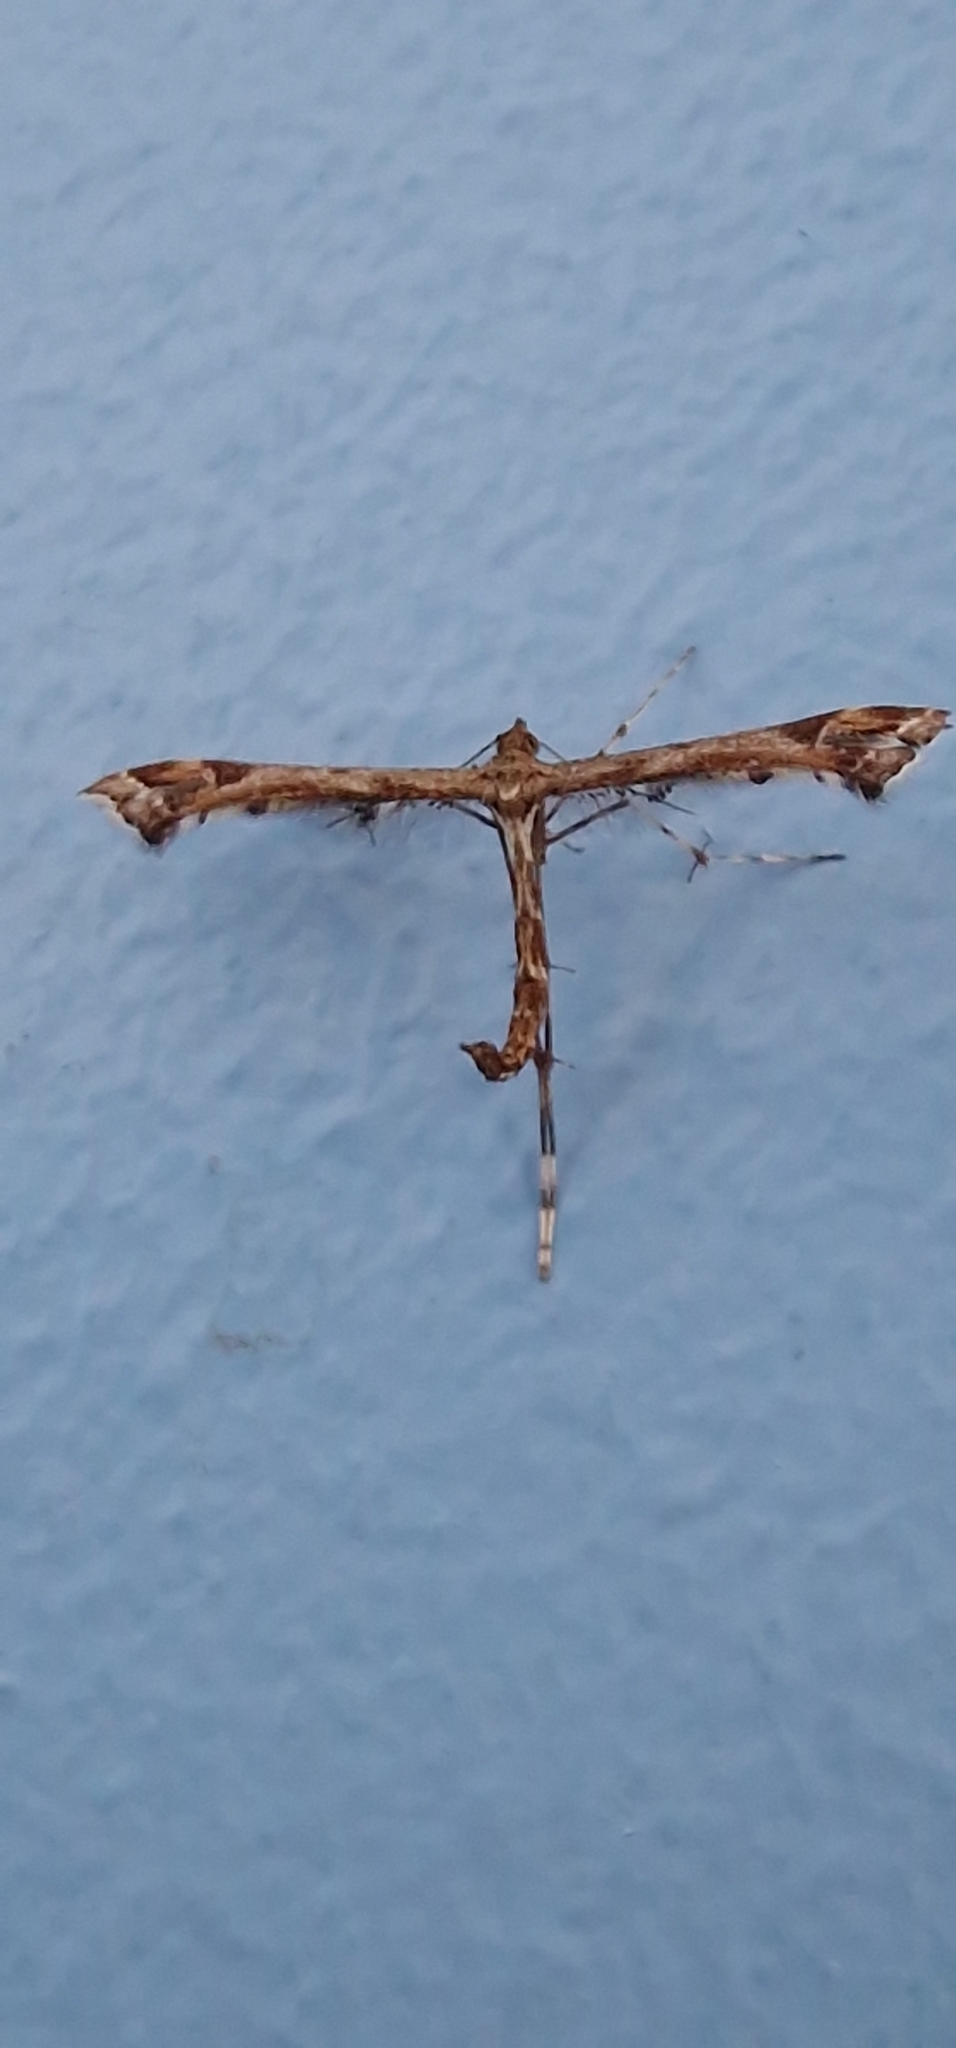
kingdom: Animalia
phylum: Arthropoda
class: Insecta
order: Lepidoptera
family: Pterophoridae
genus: Amblyptilia
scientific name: Amblyptilia acanthadactyla
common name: Beautiful plume
